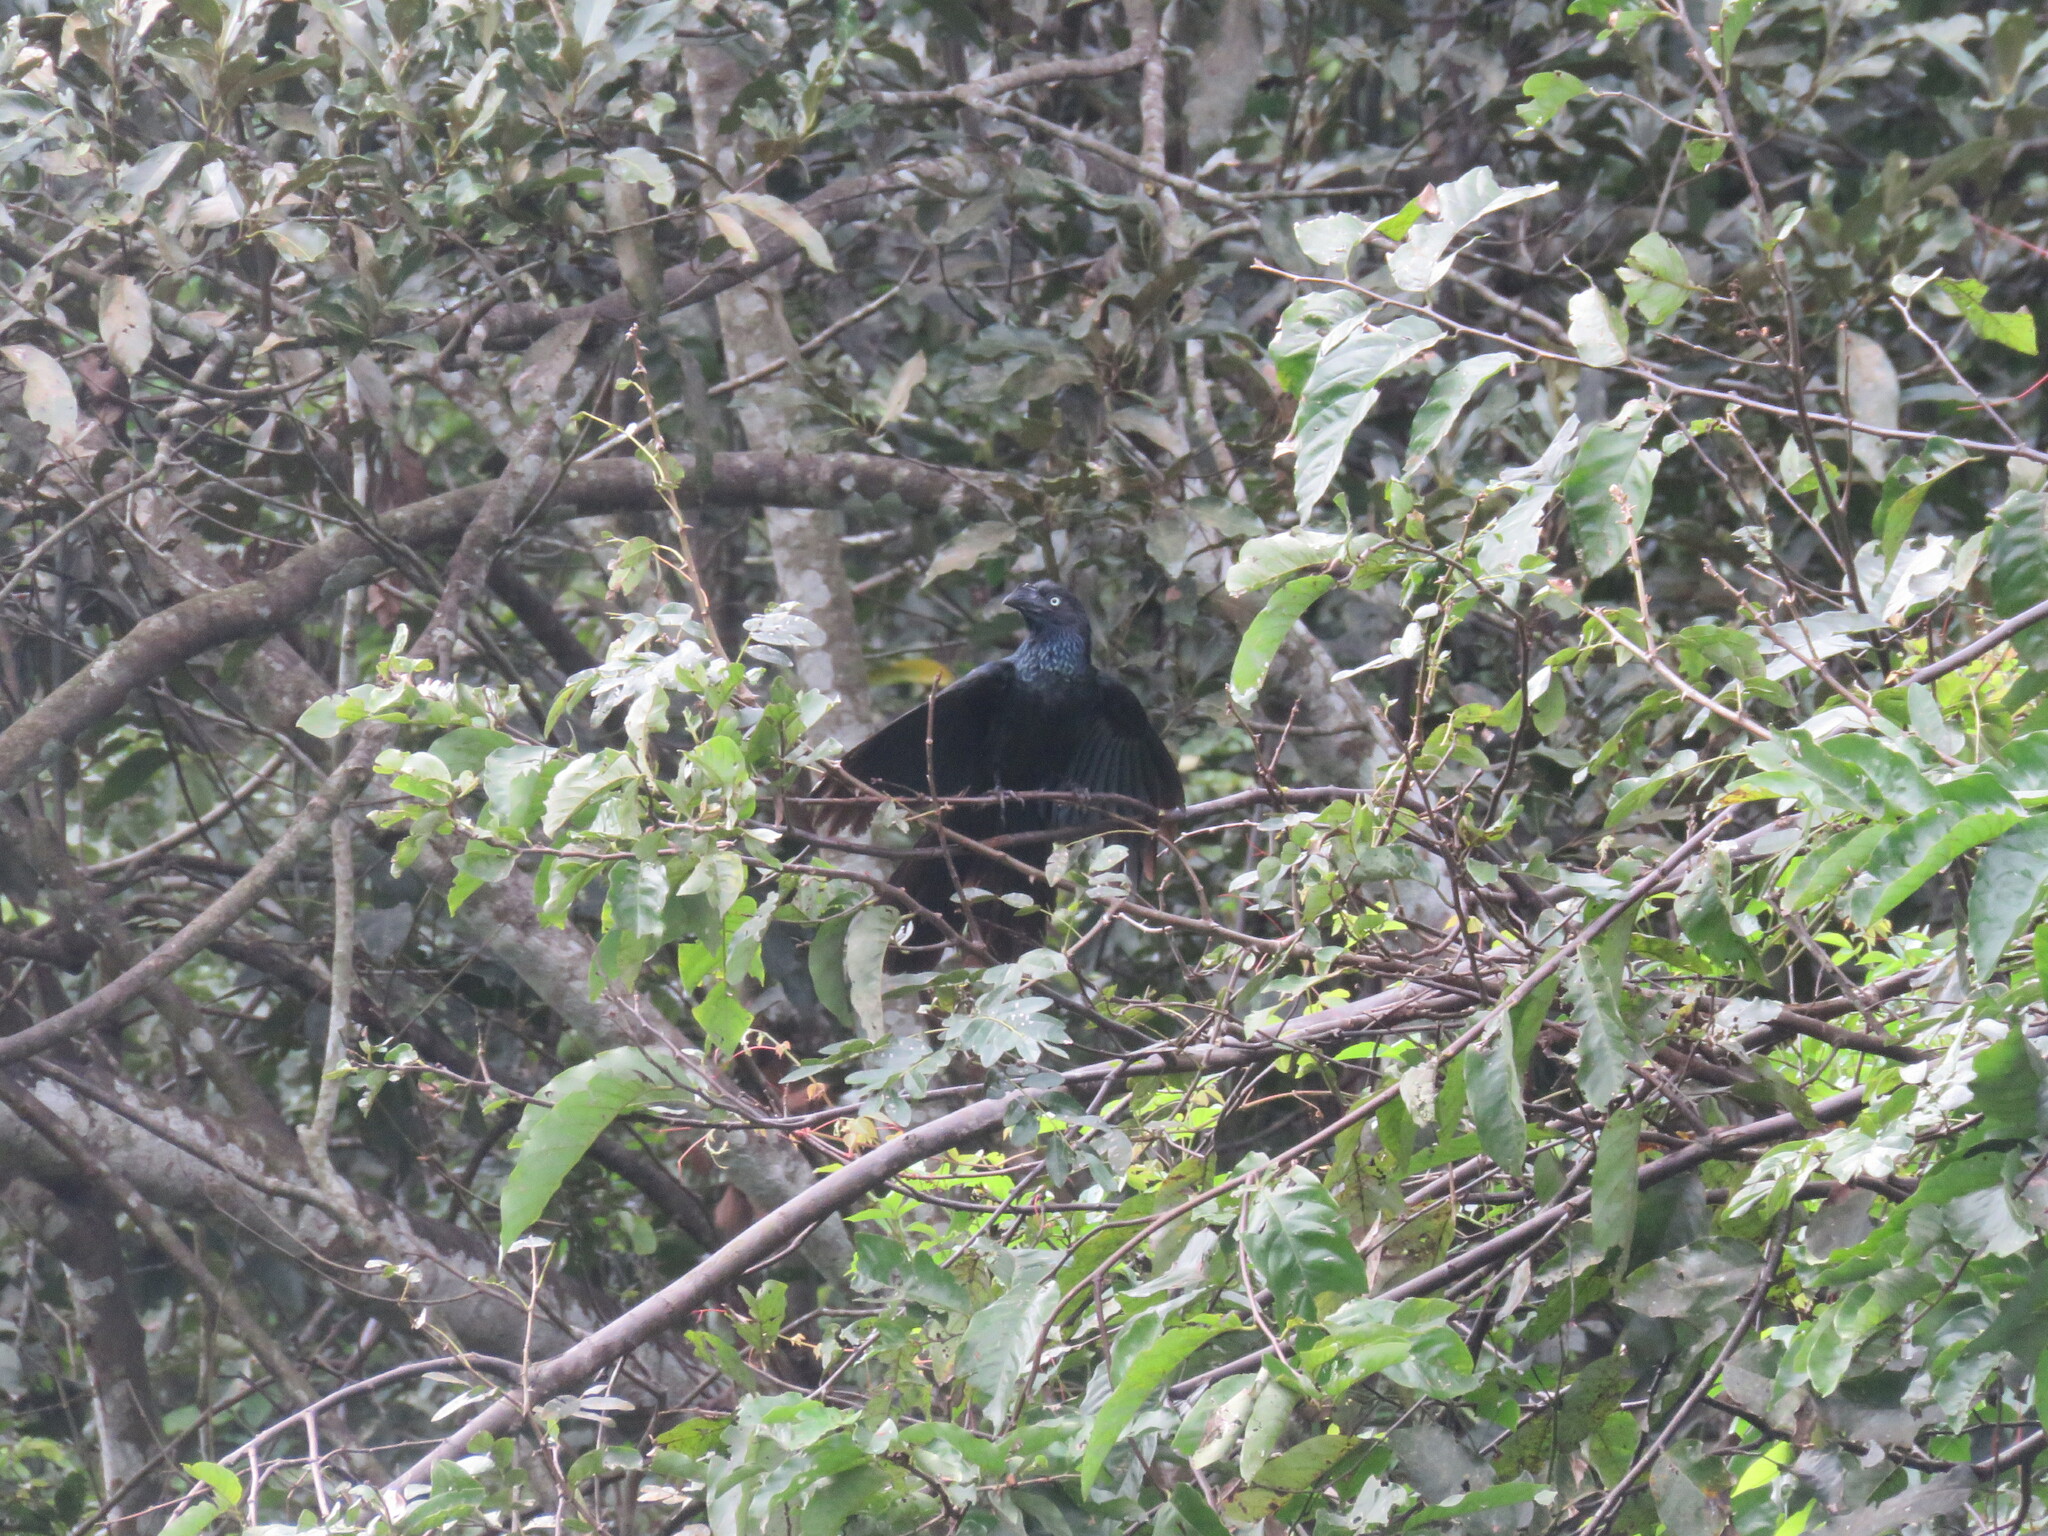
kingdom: Animalia
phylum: Chordata
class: Aves
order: Cuculiformes
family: Cuculidae
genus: Crotophaga
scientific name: Crotophaga major
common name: Greater ani
